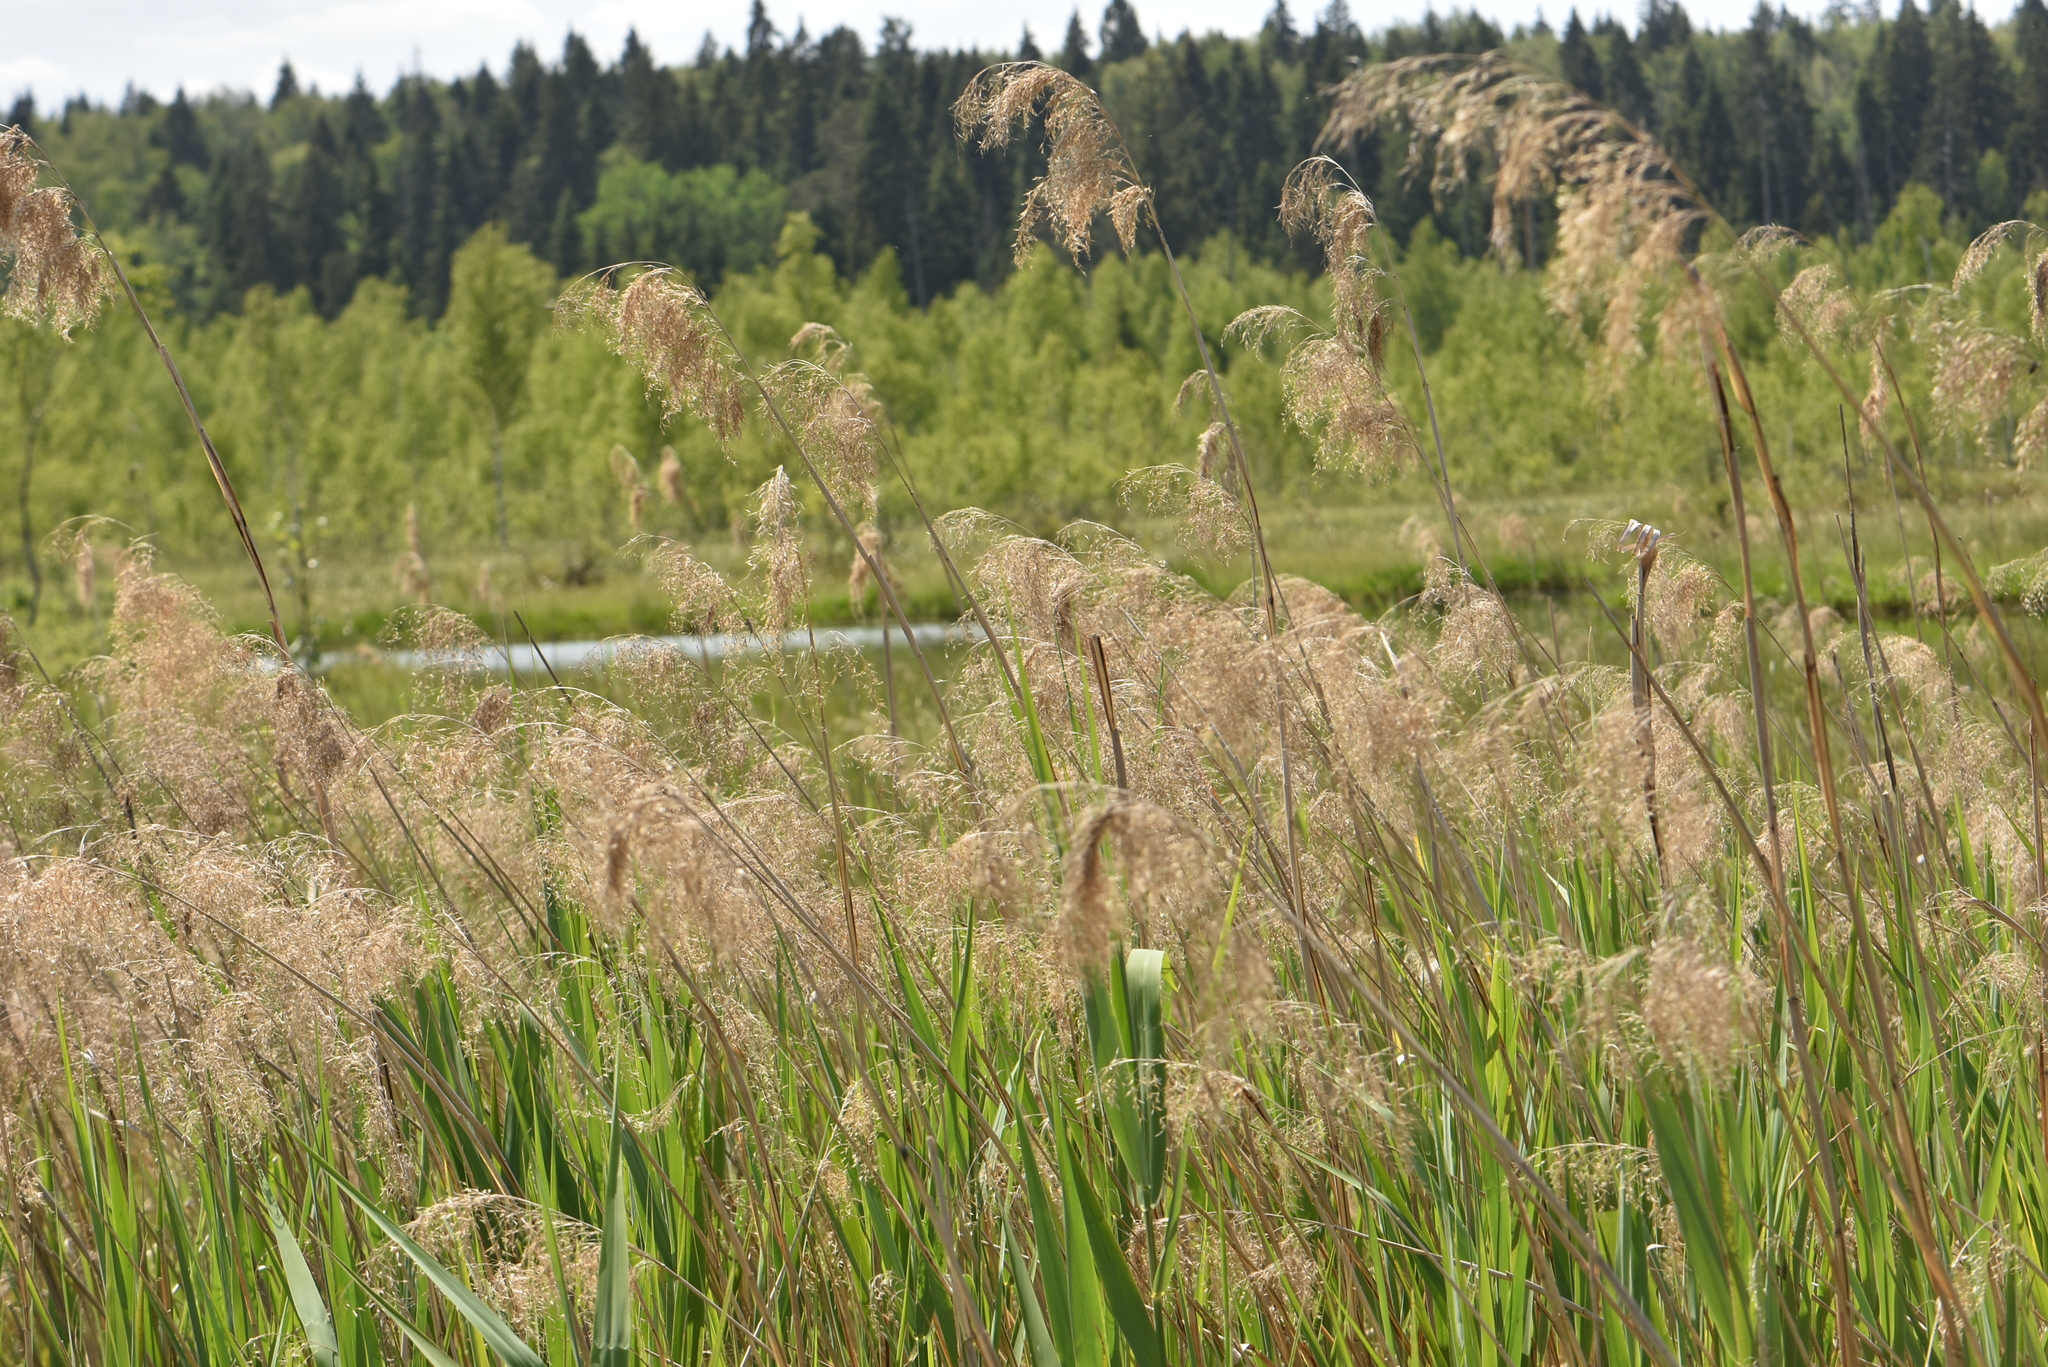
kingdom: Plantae
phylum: Tracheophyta
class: Liliopsida
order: Poales
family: Poaceae
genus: Phragmites
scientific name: Phragmites australis
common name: Common reed
